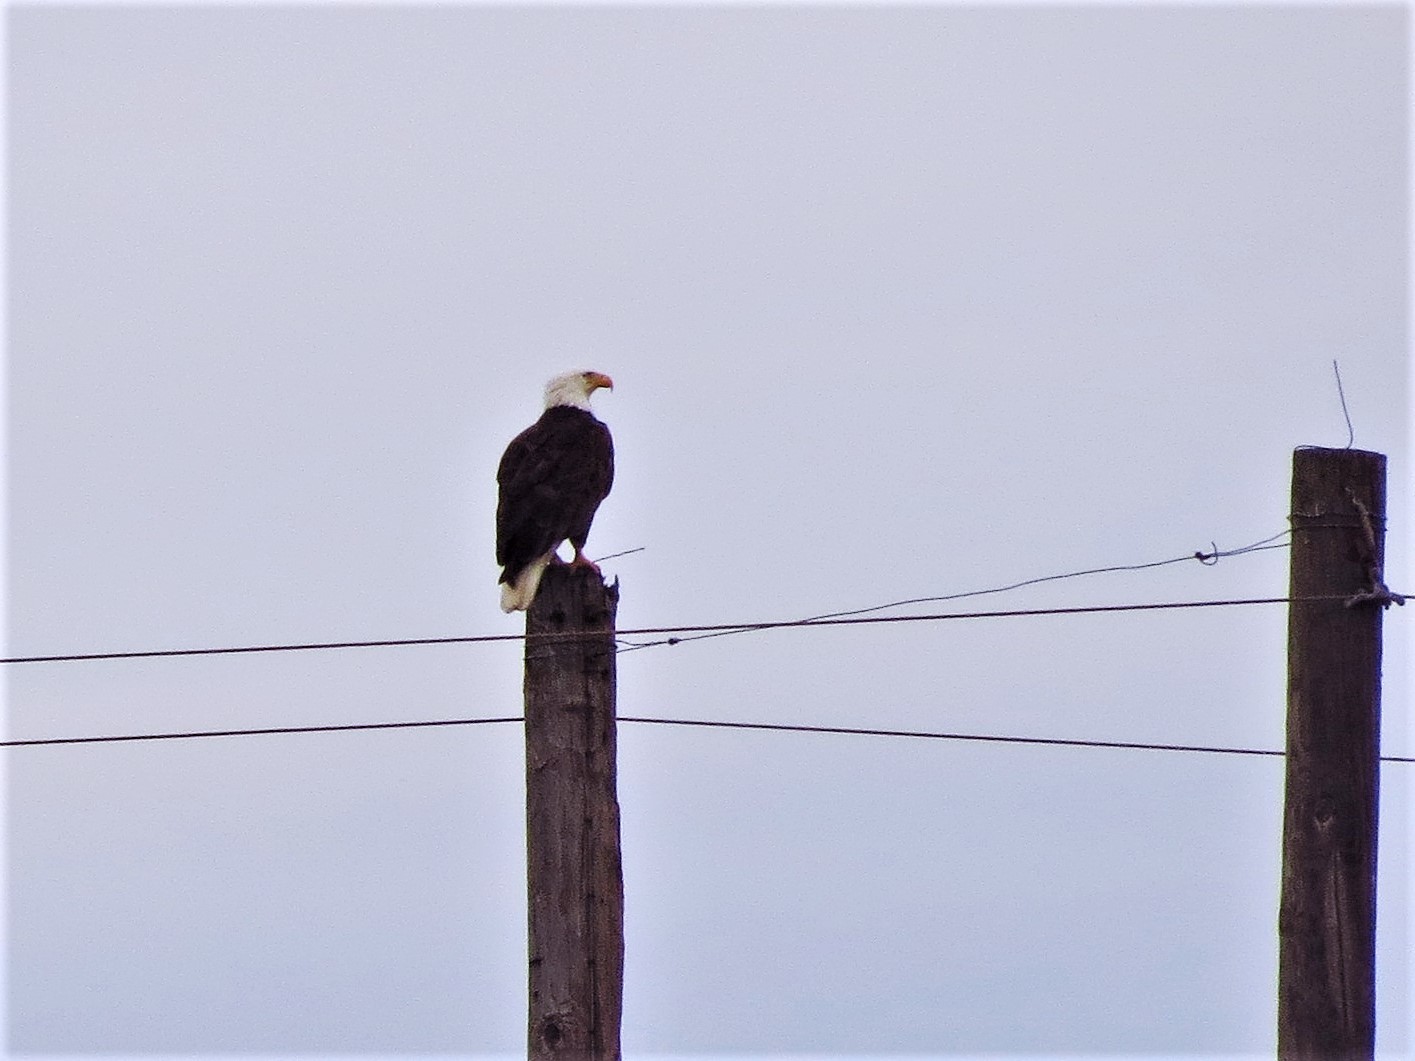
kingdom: Animalia
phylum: Chordata
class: Aves
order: Accipitriformes
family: Accipitridae
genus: Haliaeetus
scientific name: Haliaeetus leucocephalus
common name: Bald eagle
